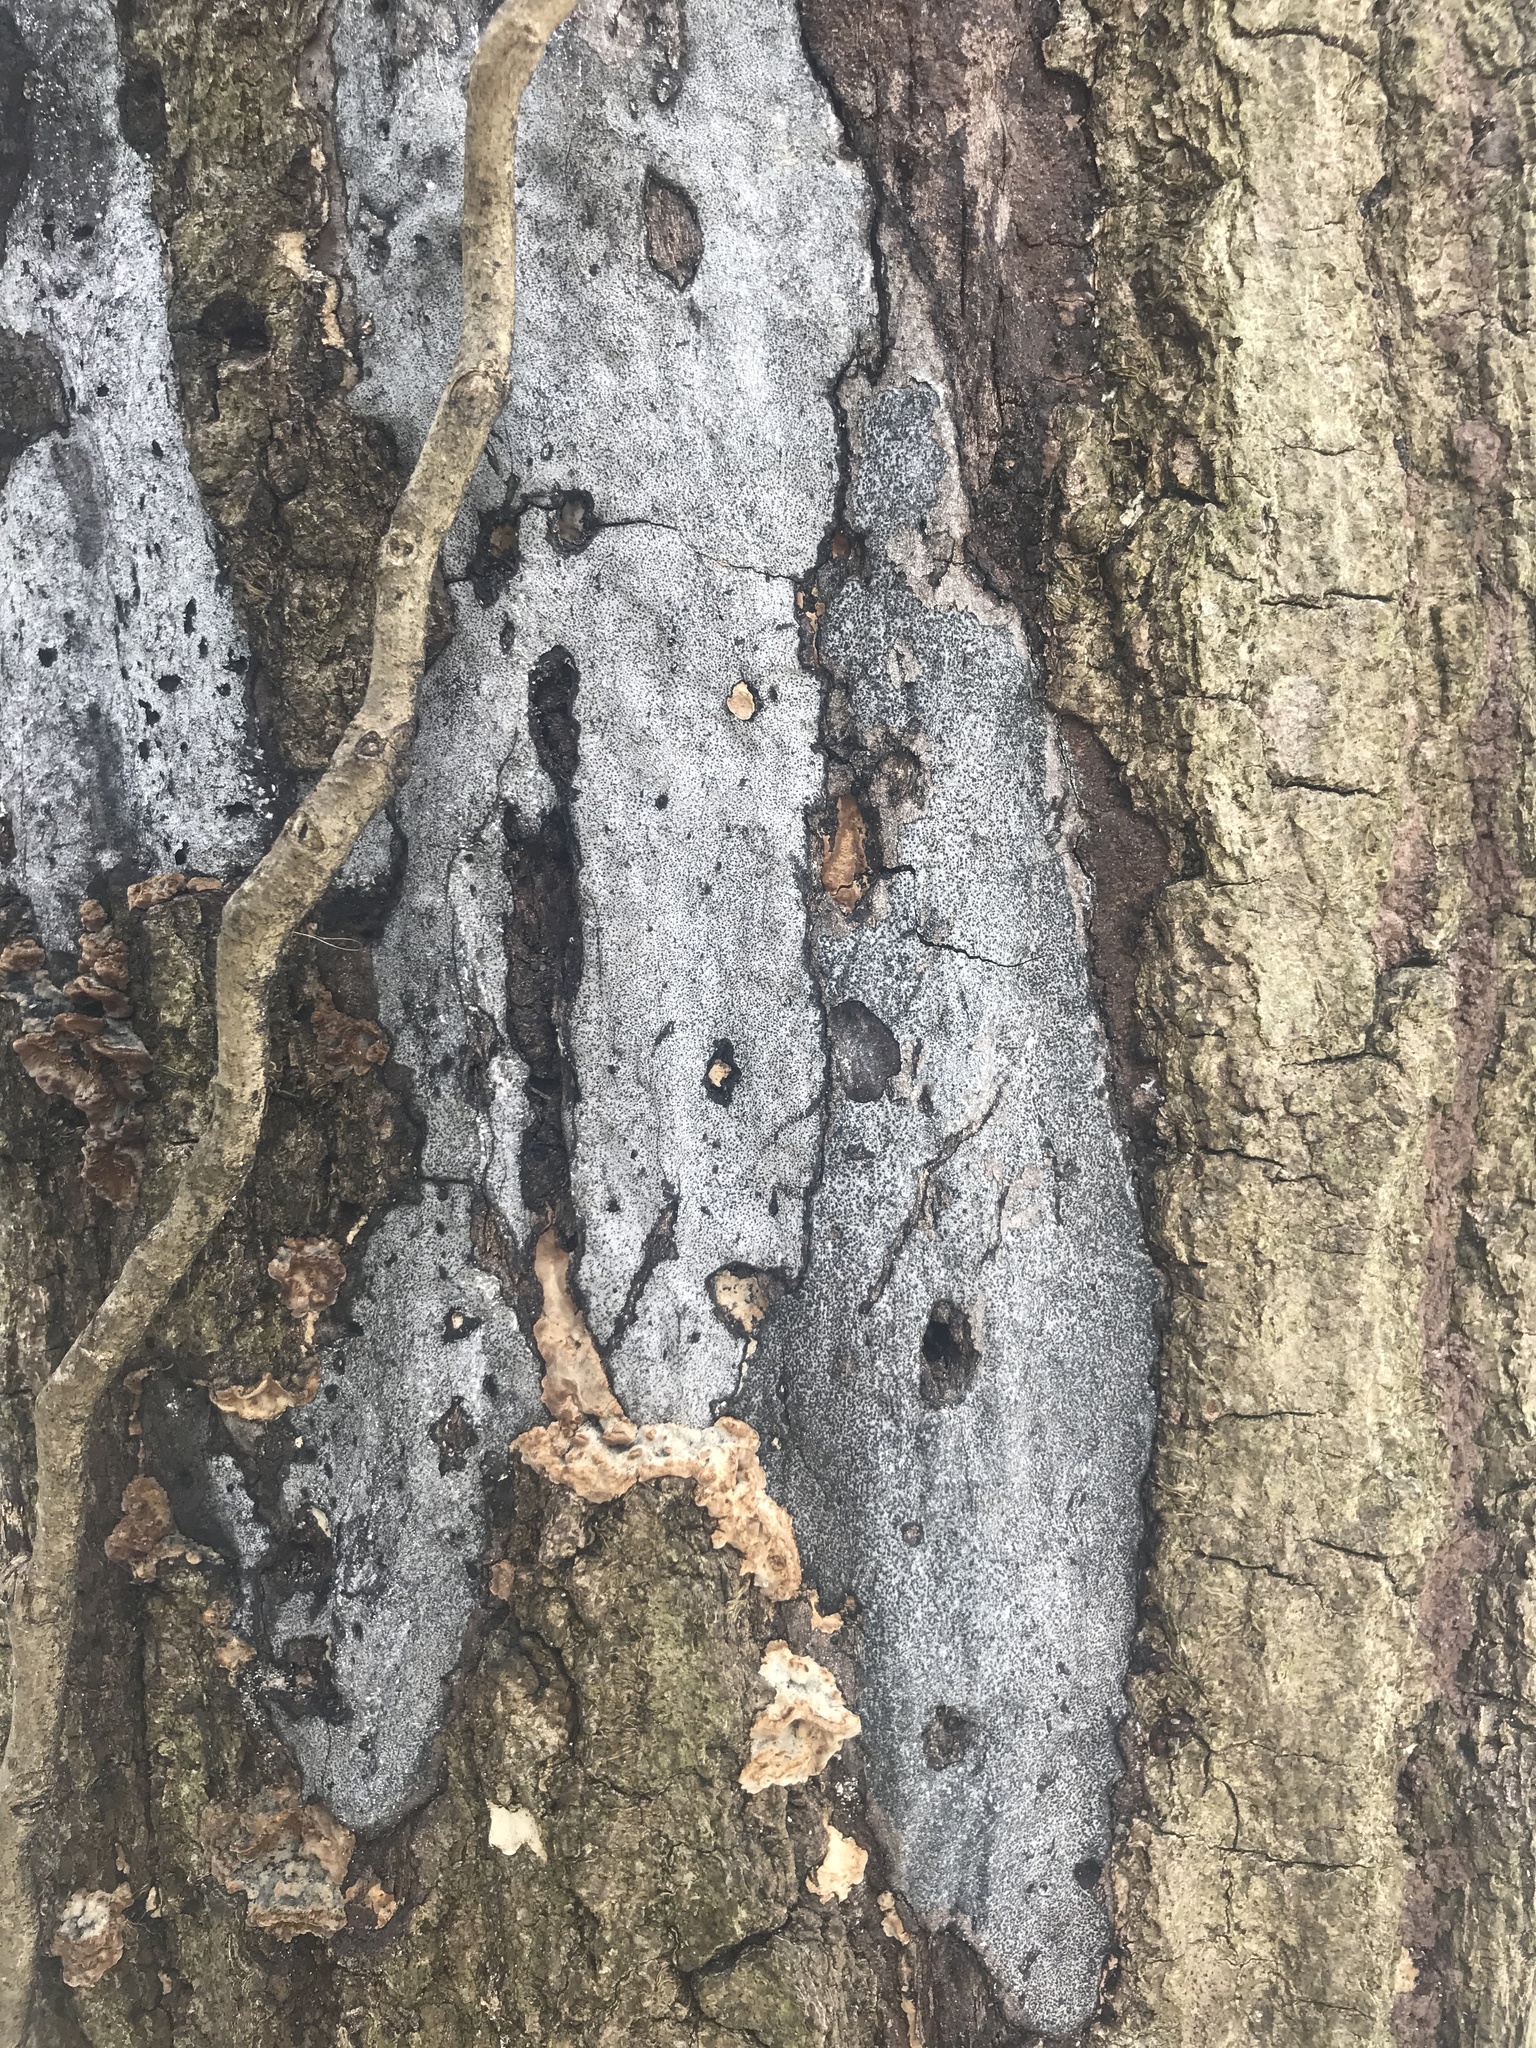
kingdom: Fungi
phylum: Ascomycota
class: Sordariomycetes
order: Xylariales
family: Graphostromataceae
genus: Biscogniauxia
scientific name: Biscogniauxia atropunctata
